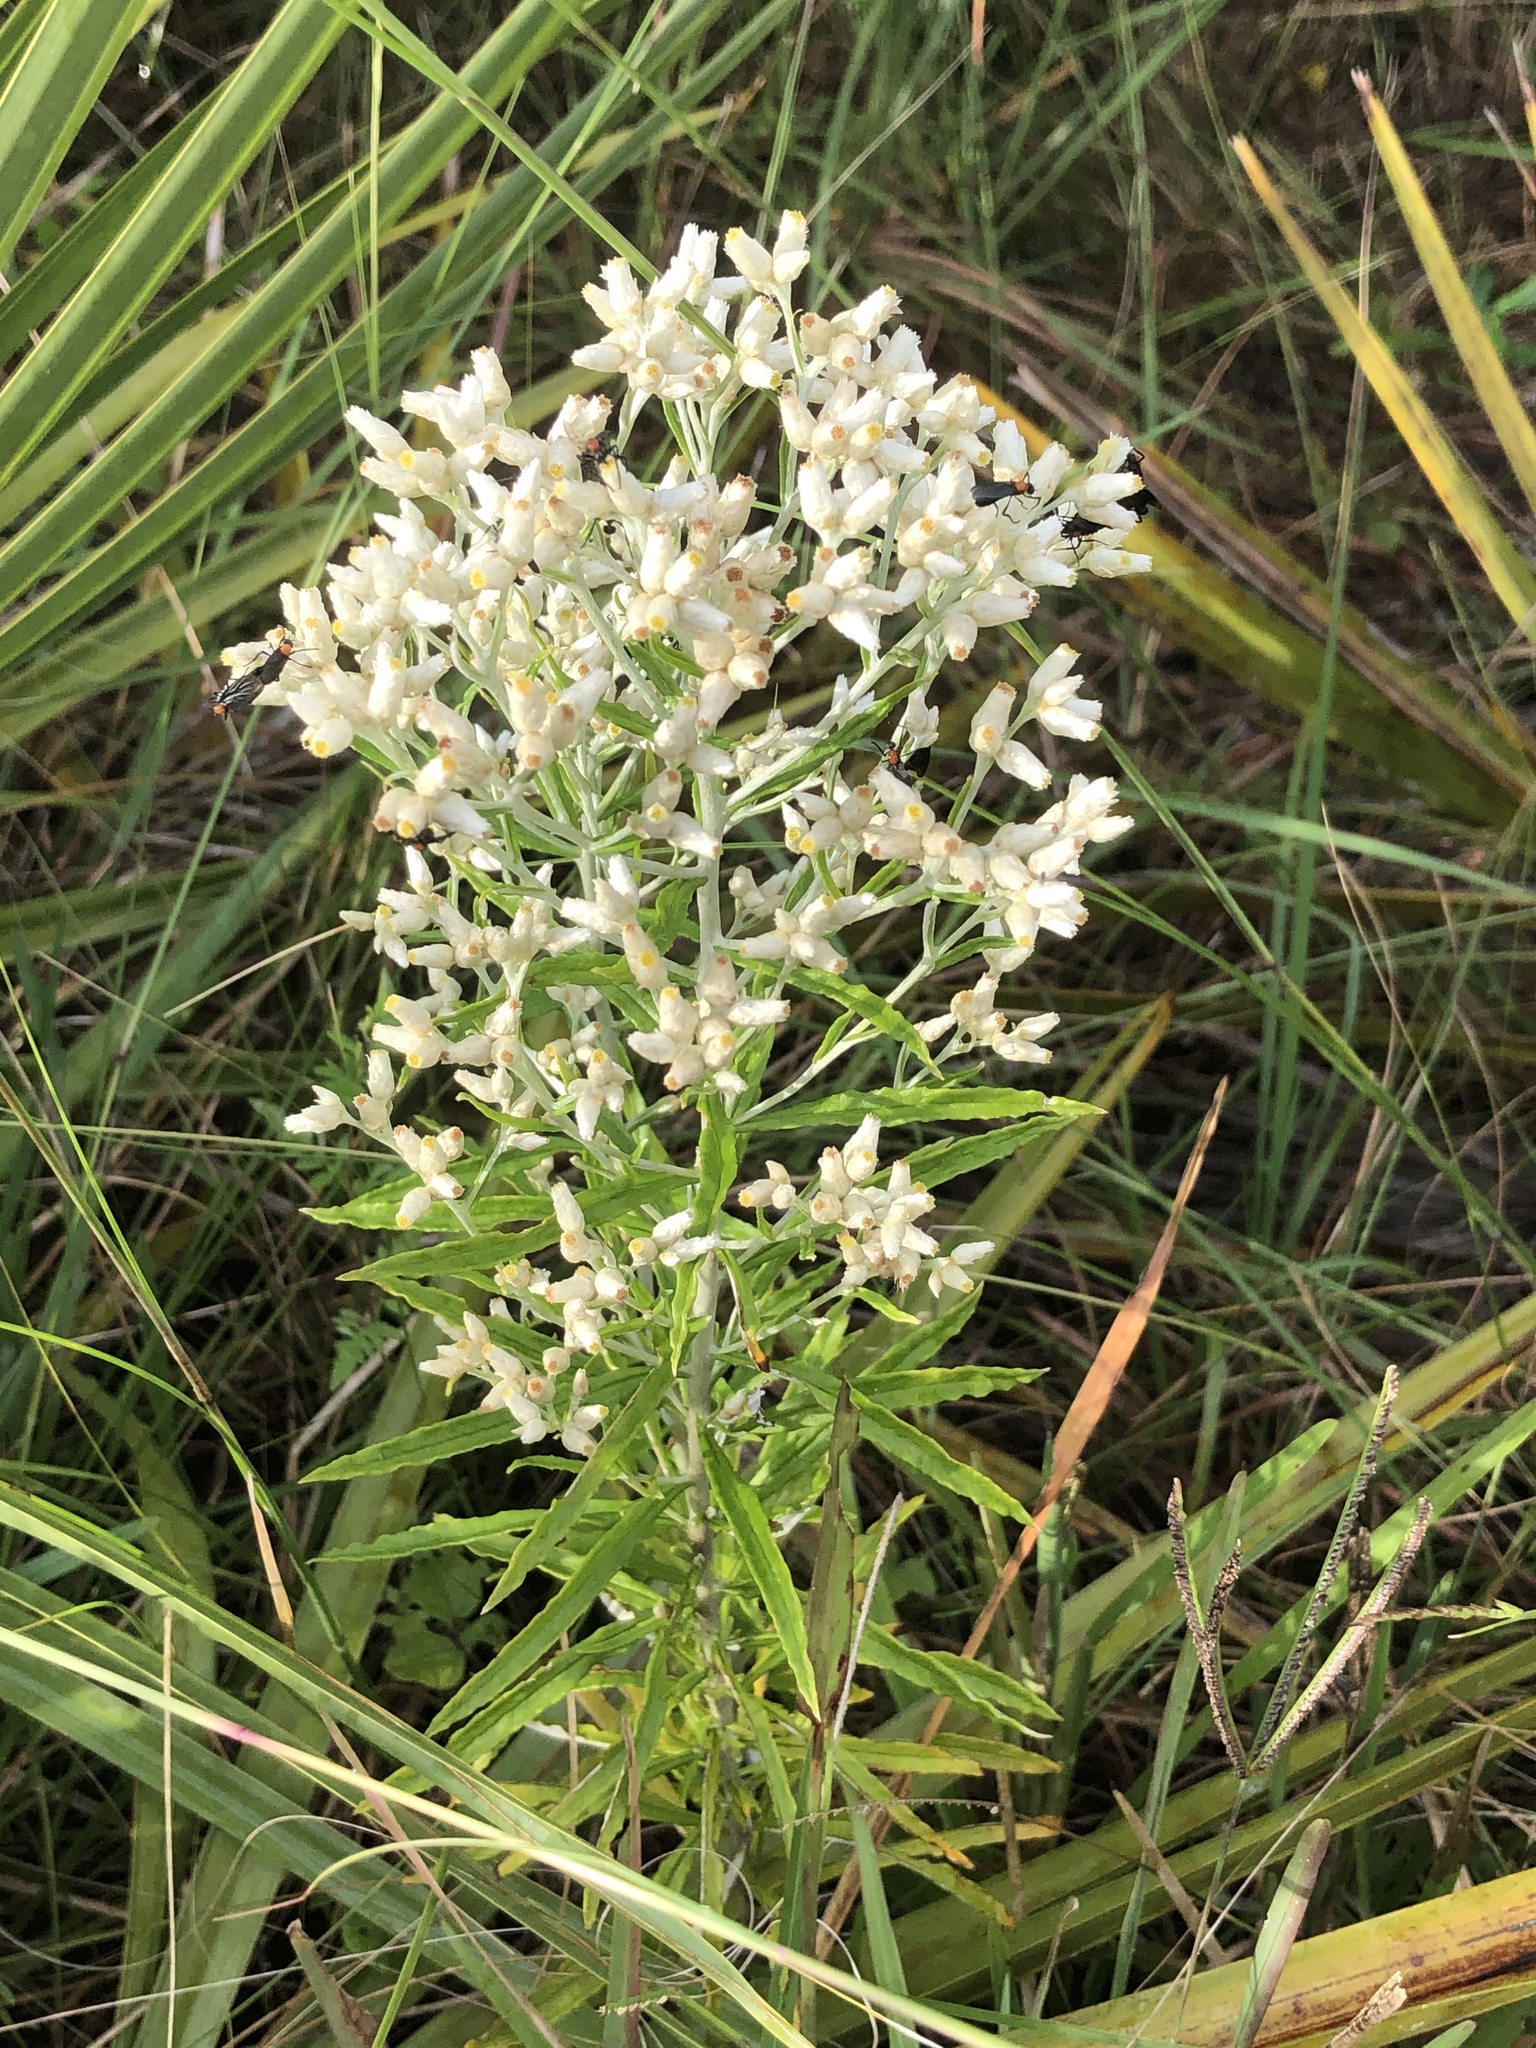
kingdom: Plantae
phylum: Tracheophyta
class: Magnoliopsida
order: Asterales
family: Asteraceae
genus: Pseudognaphalium
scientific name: Pseudognaphalium obtusifolium
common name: Eastern rabbit-tobacco
